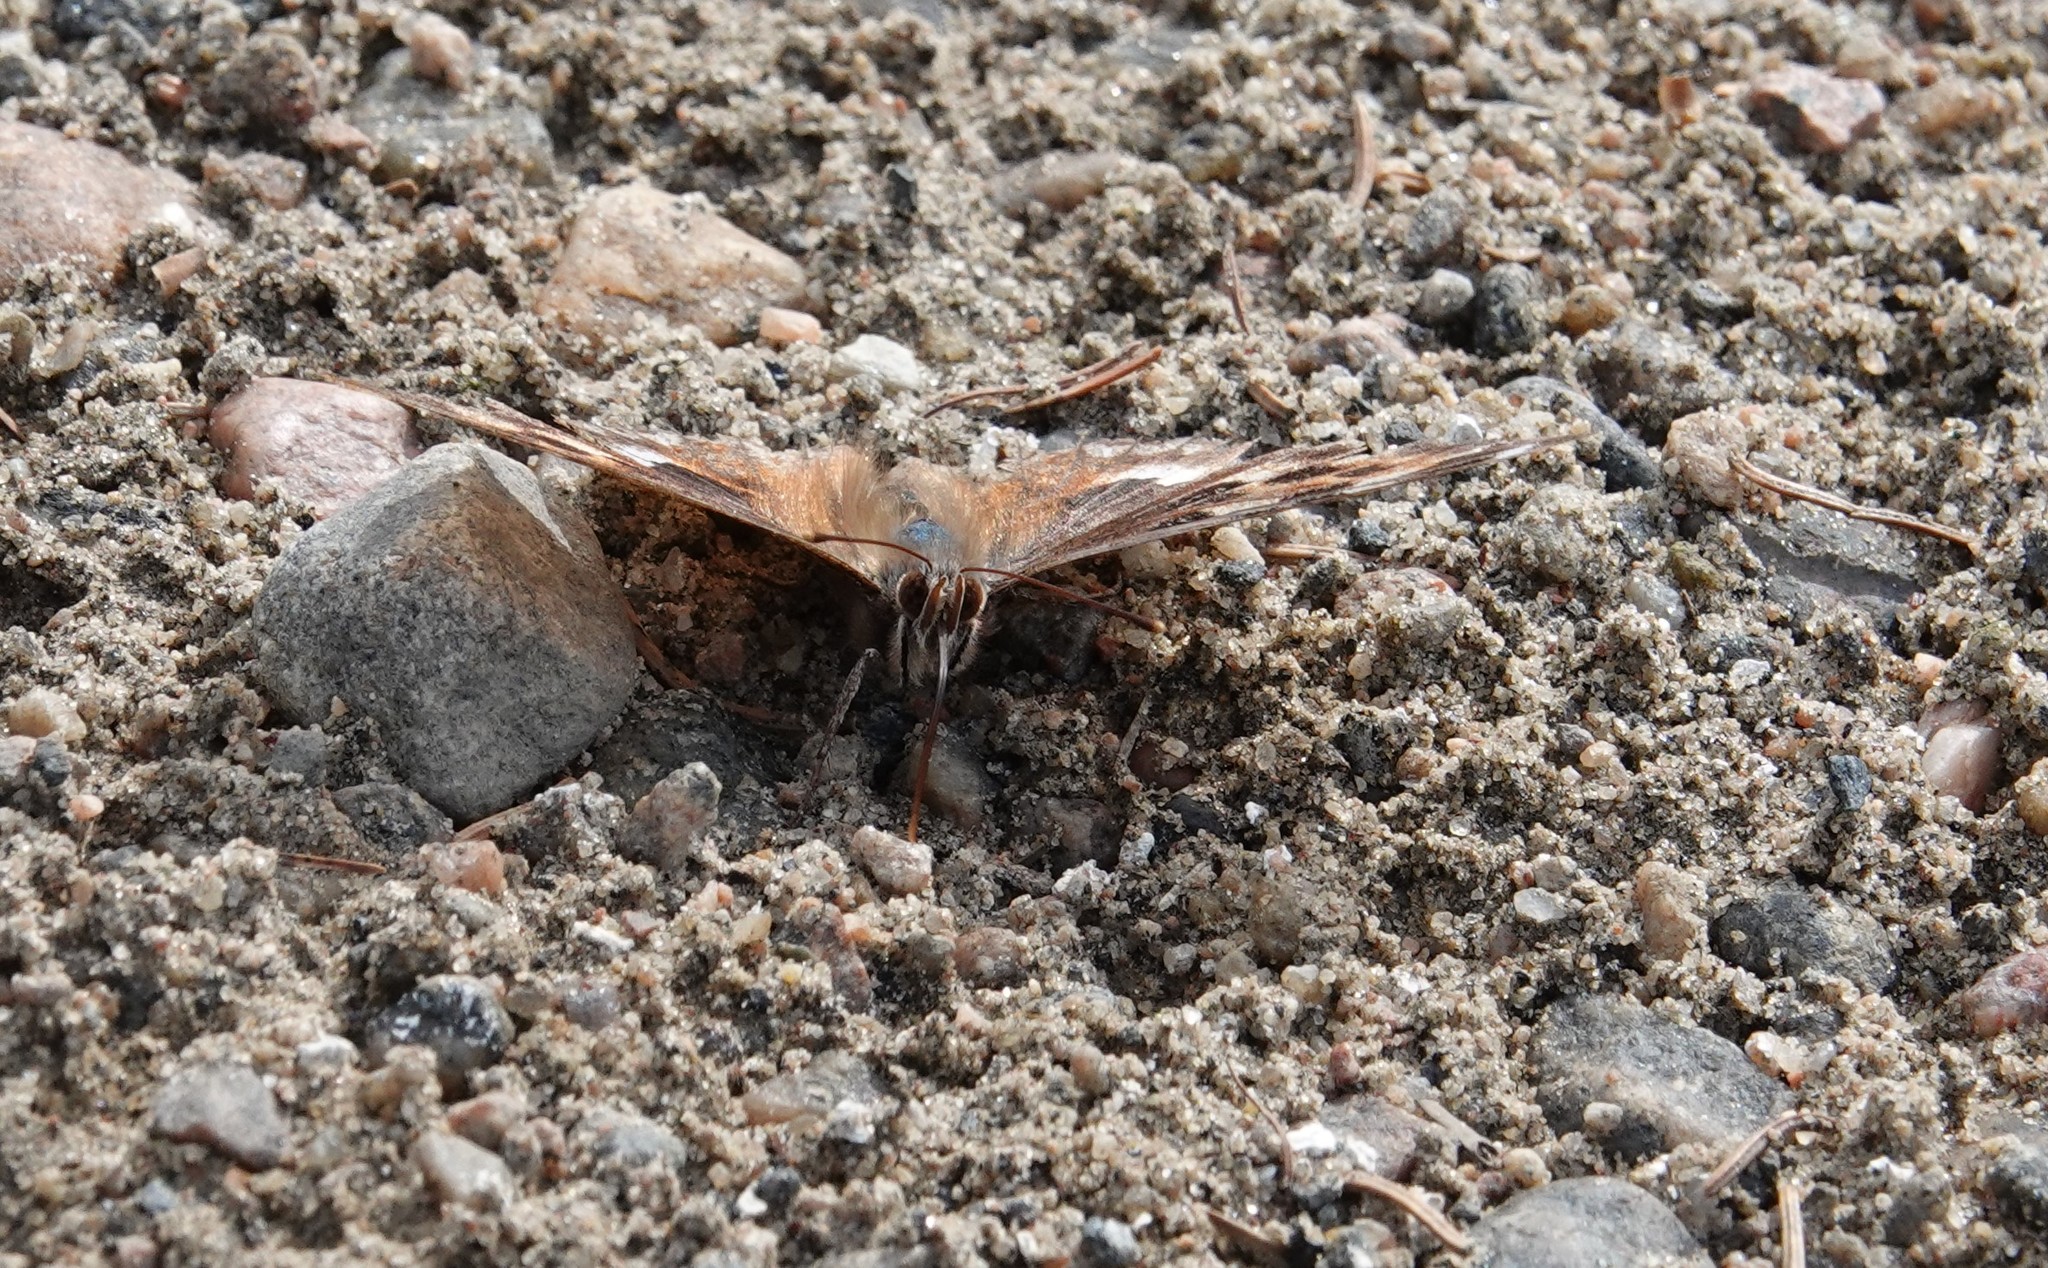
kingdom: Animalia
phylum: Arthropoda
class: Insecta
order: Lepidoptera
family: Nymphalidae
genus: Polygonia
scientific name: Polygonia vaualbum
